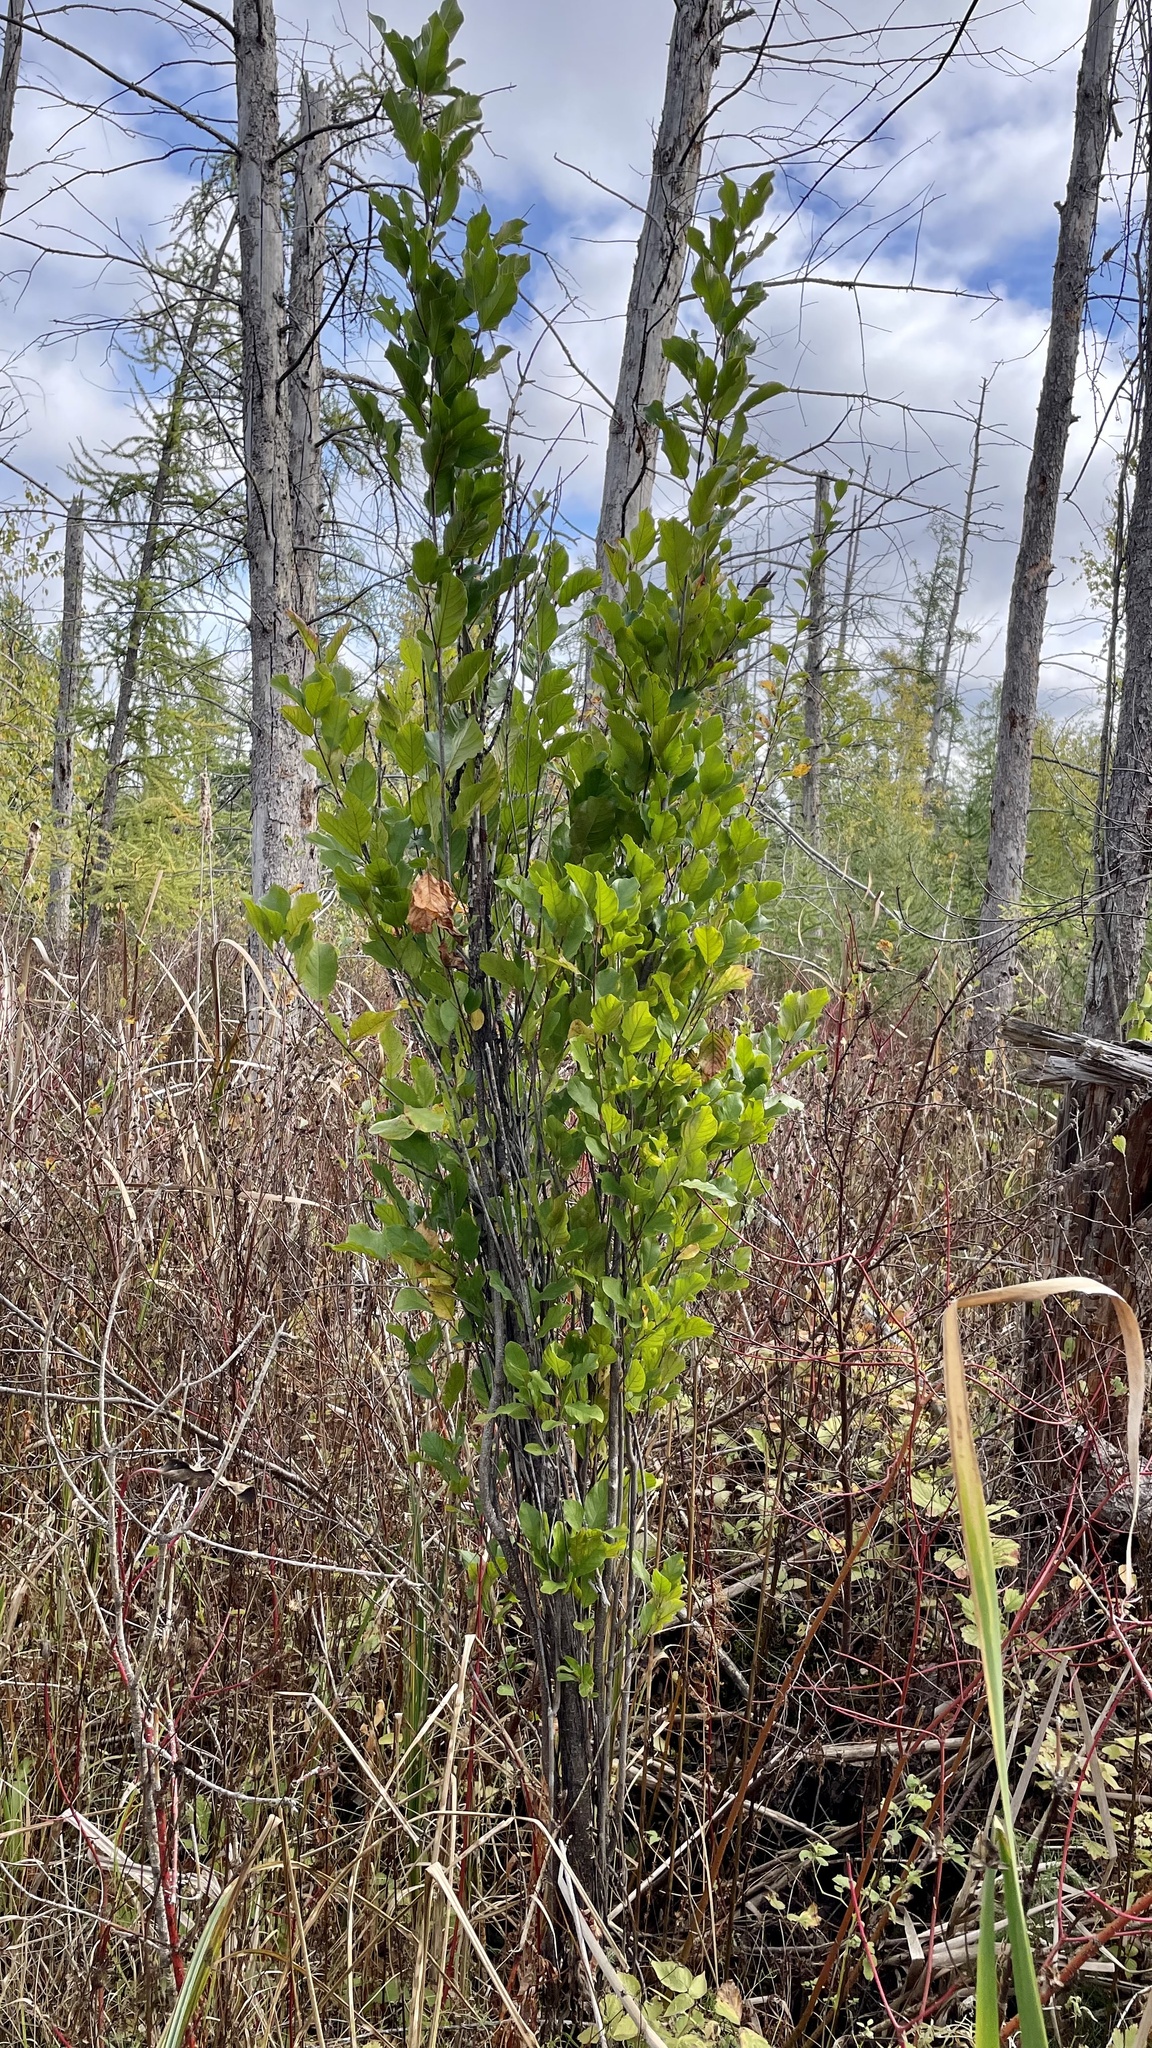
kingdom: Plantae
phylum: Tracheophyta
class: Magnoliopsida
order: Rosales
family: Rhamnaceae
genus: Frangula
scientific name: Frangula alnus
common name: Alder buckthorn
